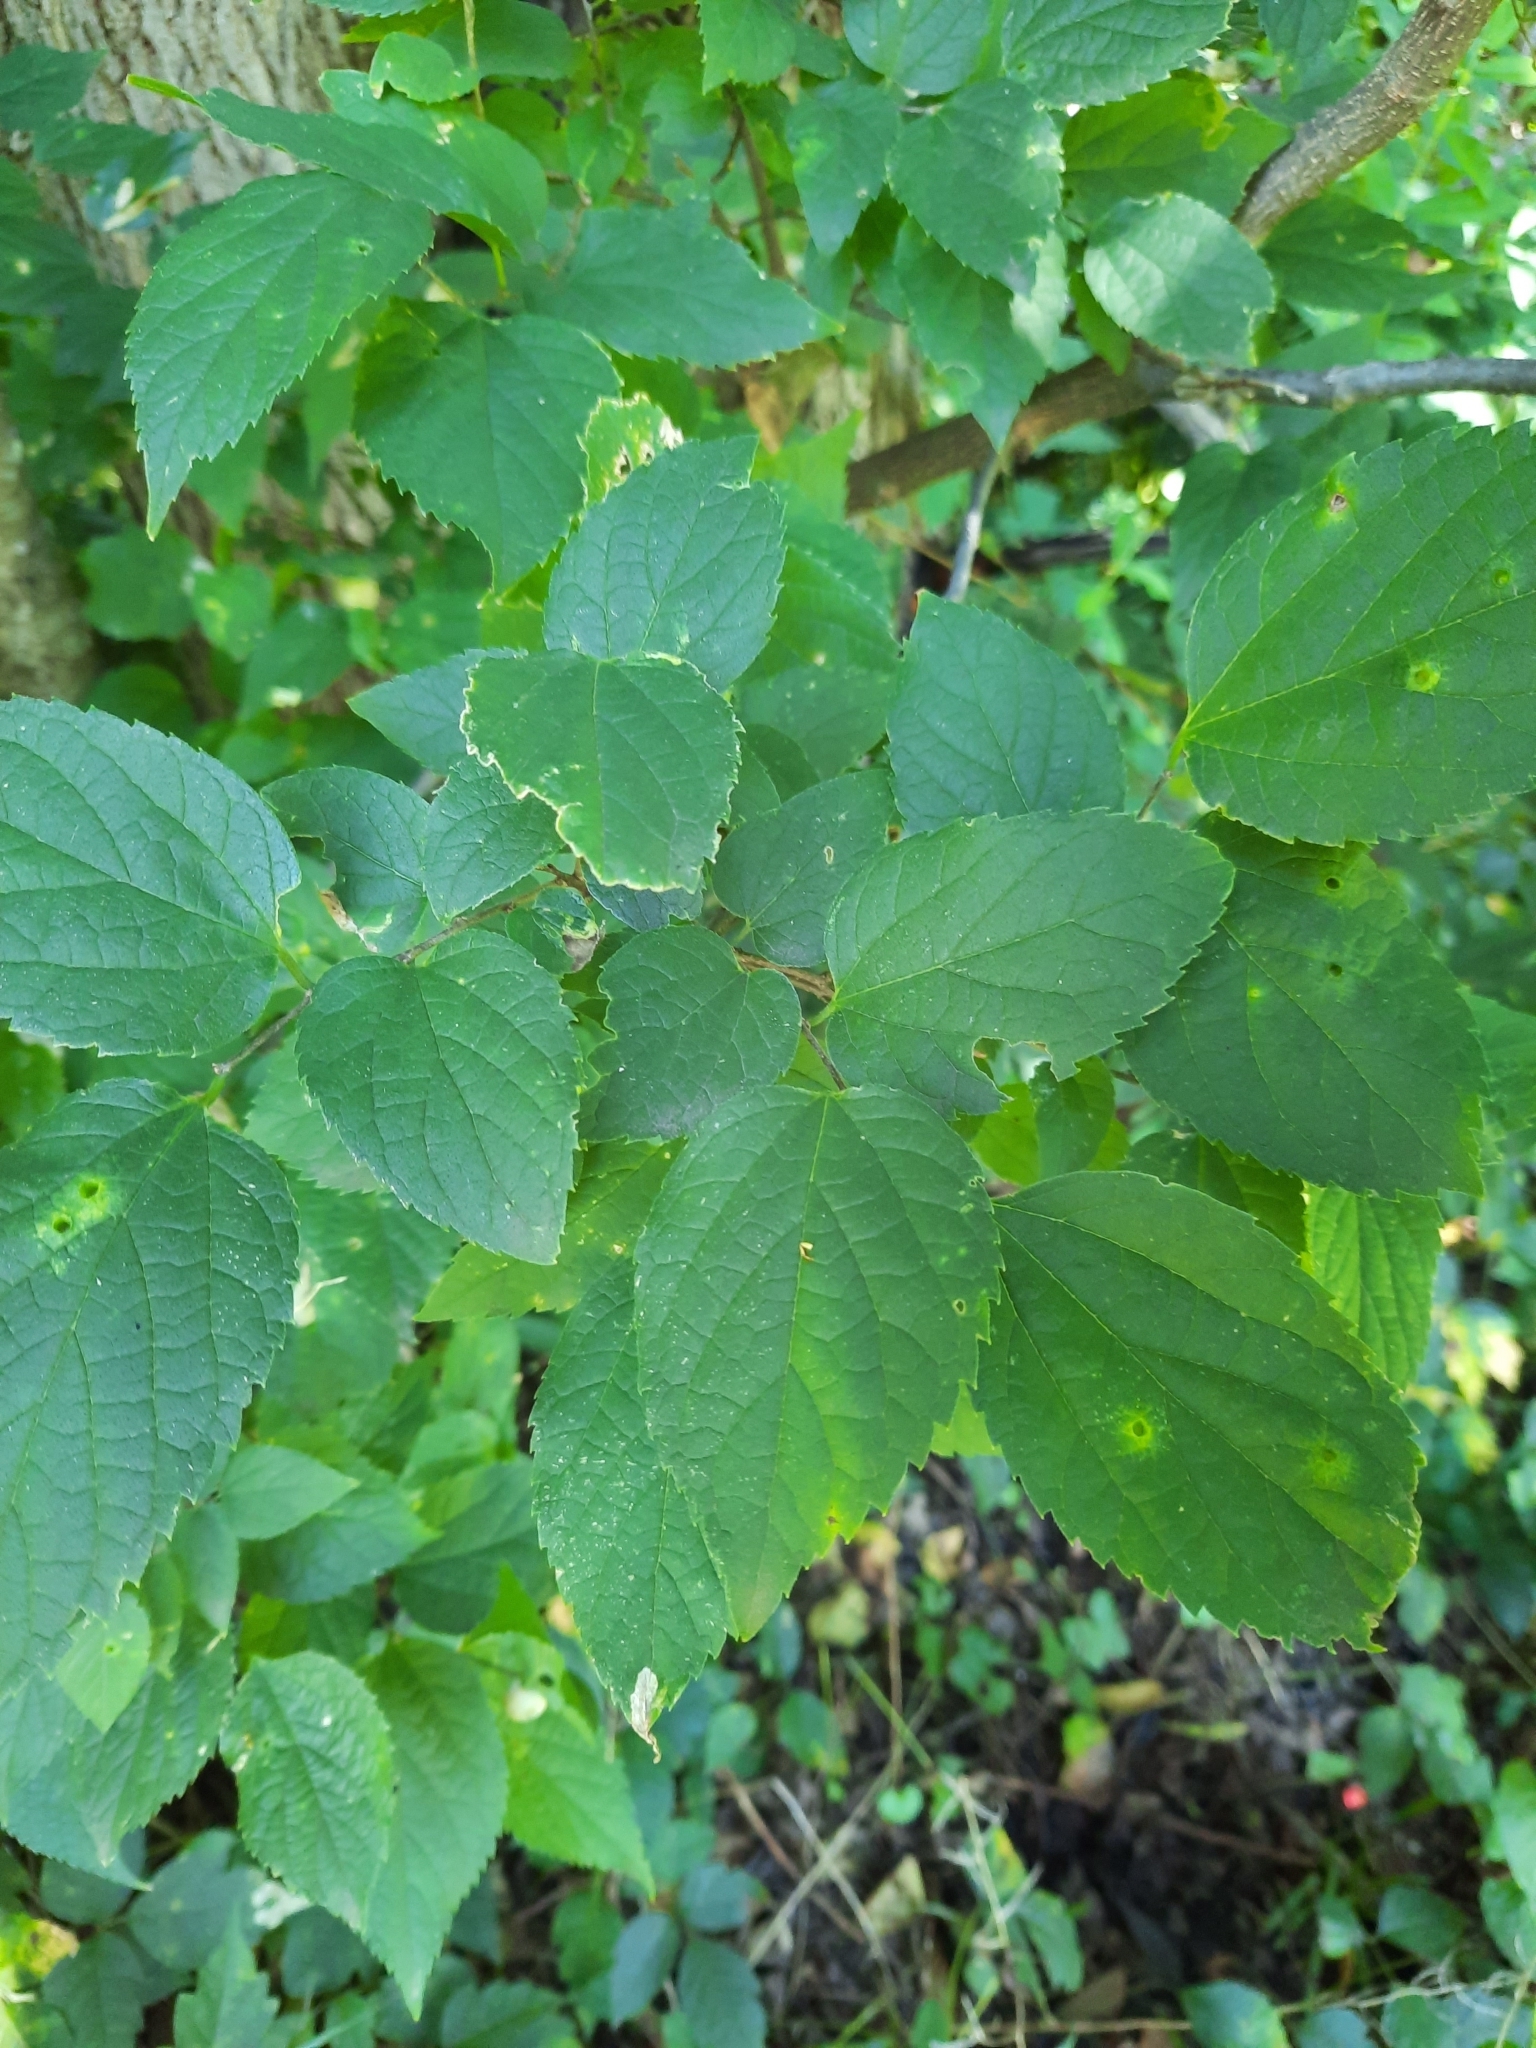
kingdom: Plantae
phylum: Tracheophyta
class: Magnoliopsida
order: Rosales
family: Cannabaceae
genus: Celtis
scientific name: Celtis occidentalis
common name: Common hackberry
